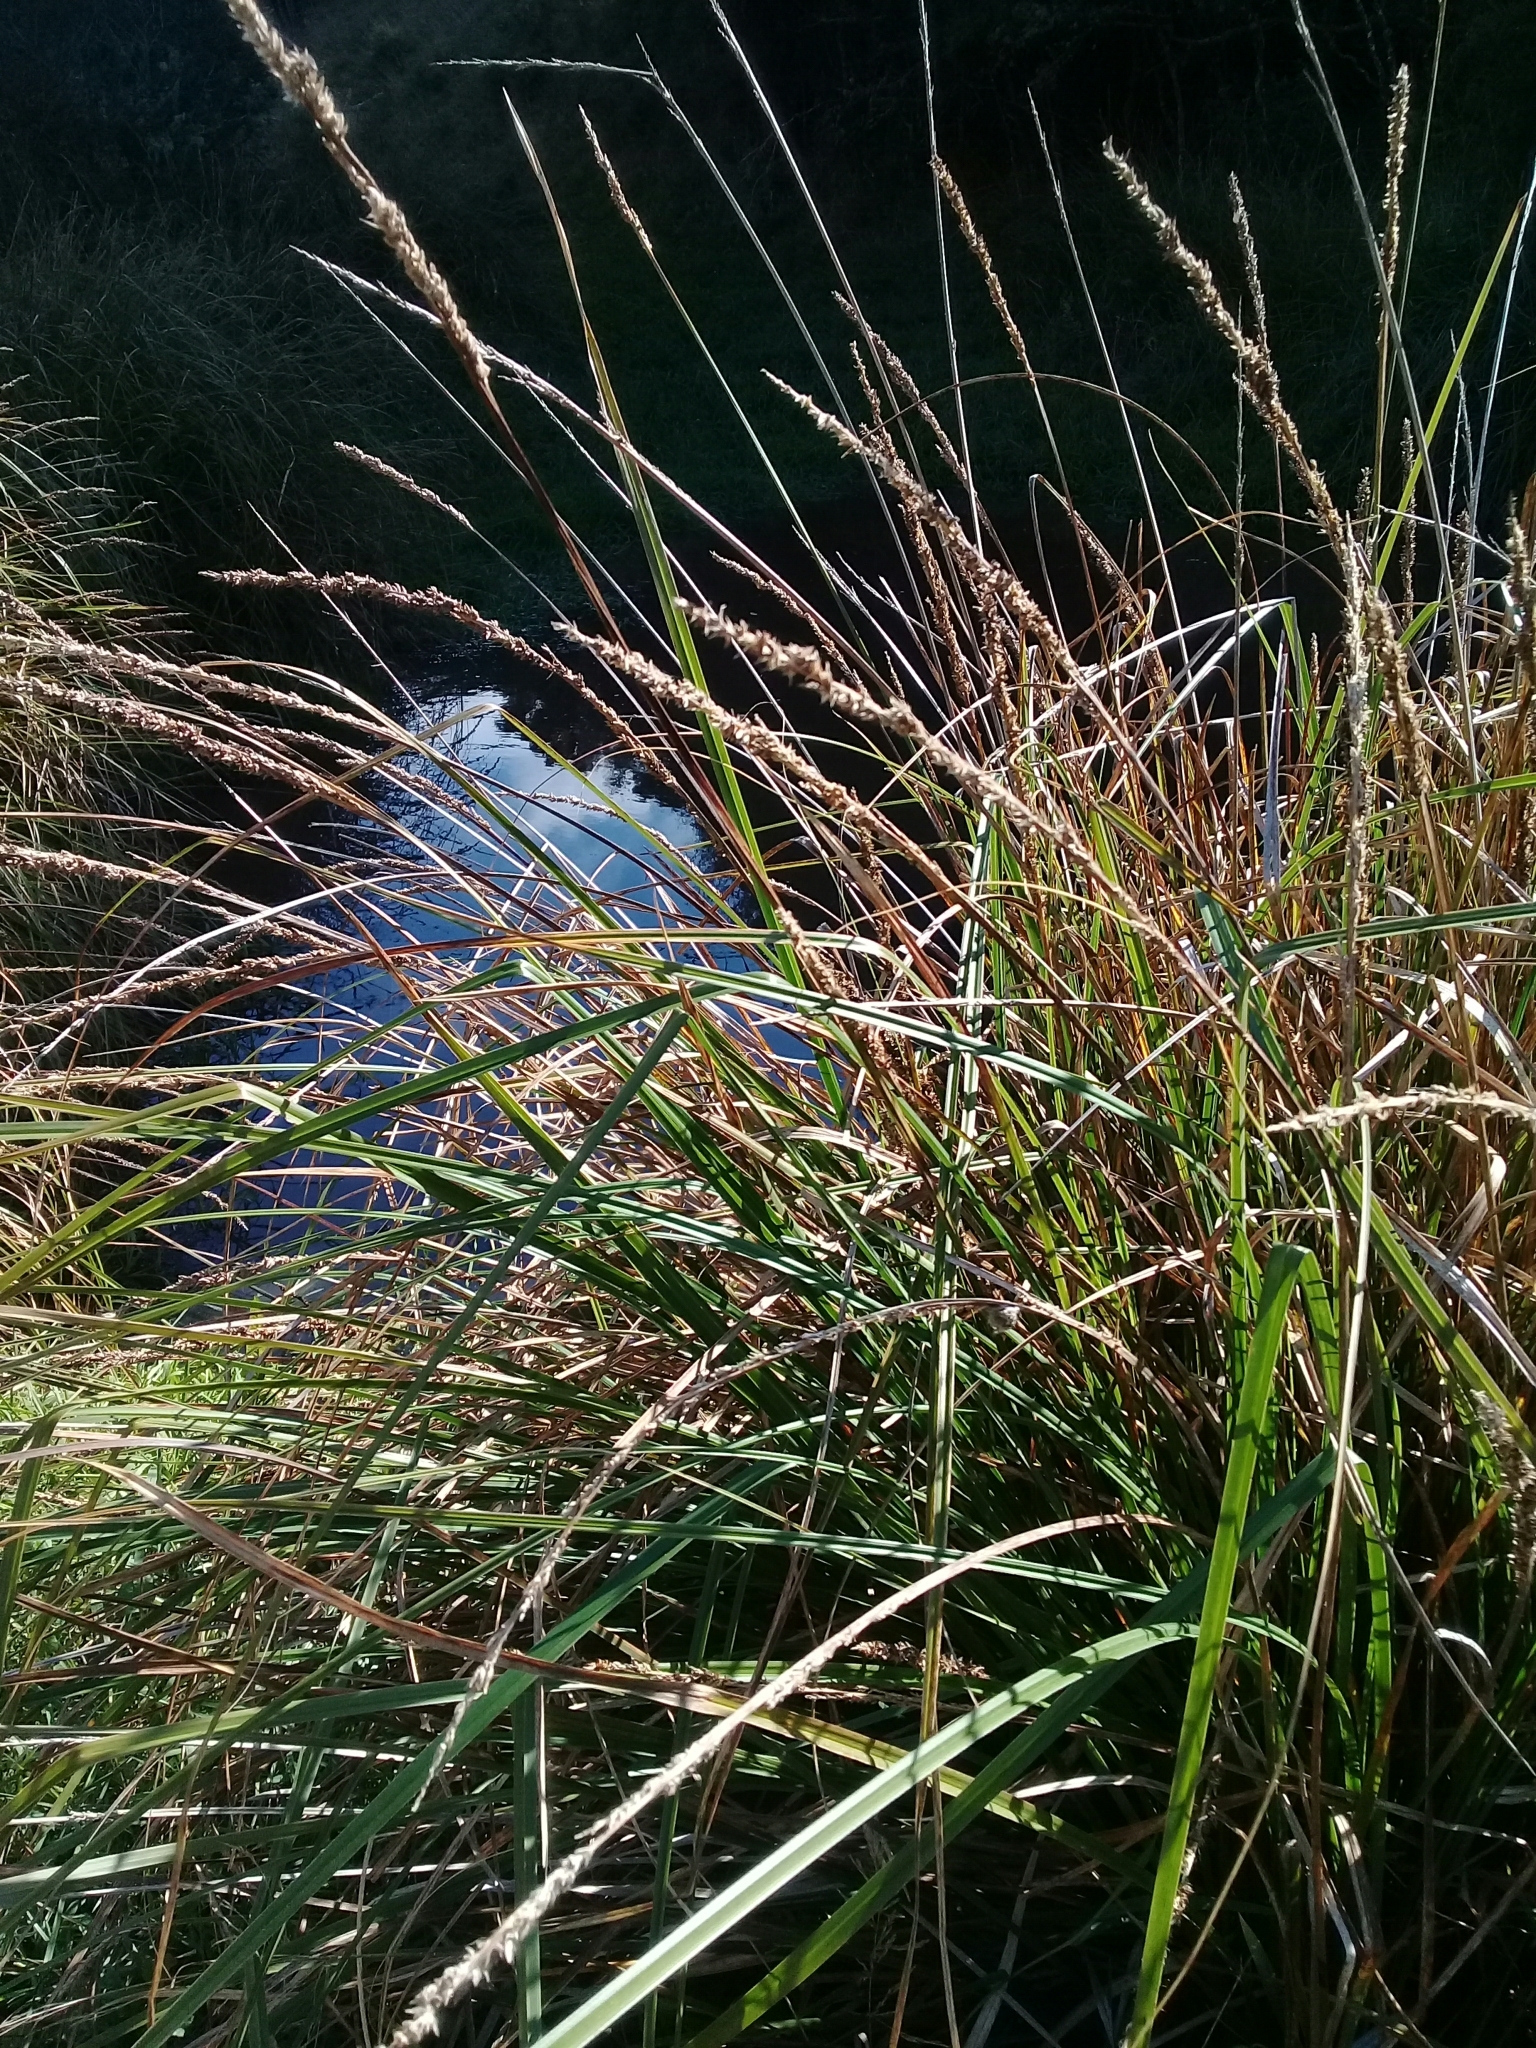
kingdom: Plantae
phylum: Tracheophyta
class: Liliopsida
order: Poales
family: Cyperaceae
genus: Carex
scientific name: Carex appressa
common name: Tussock sedge
